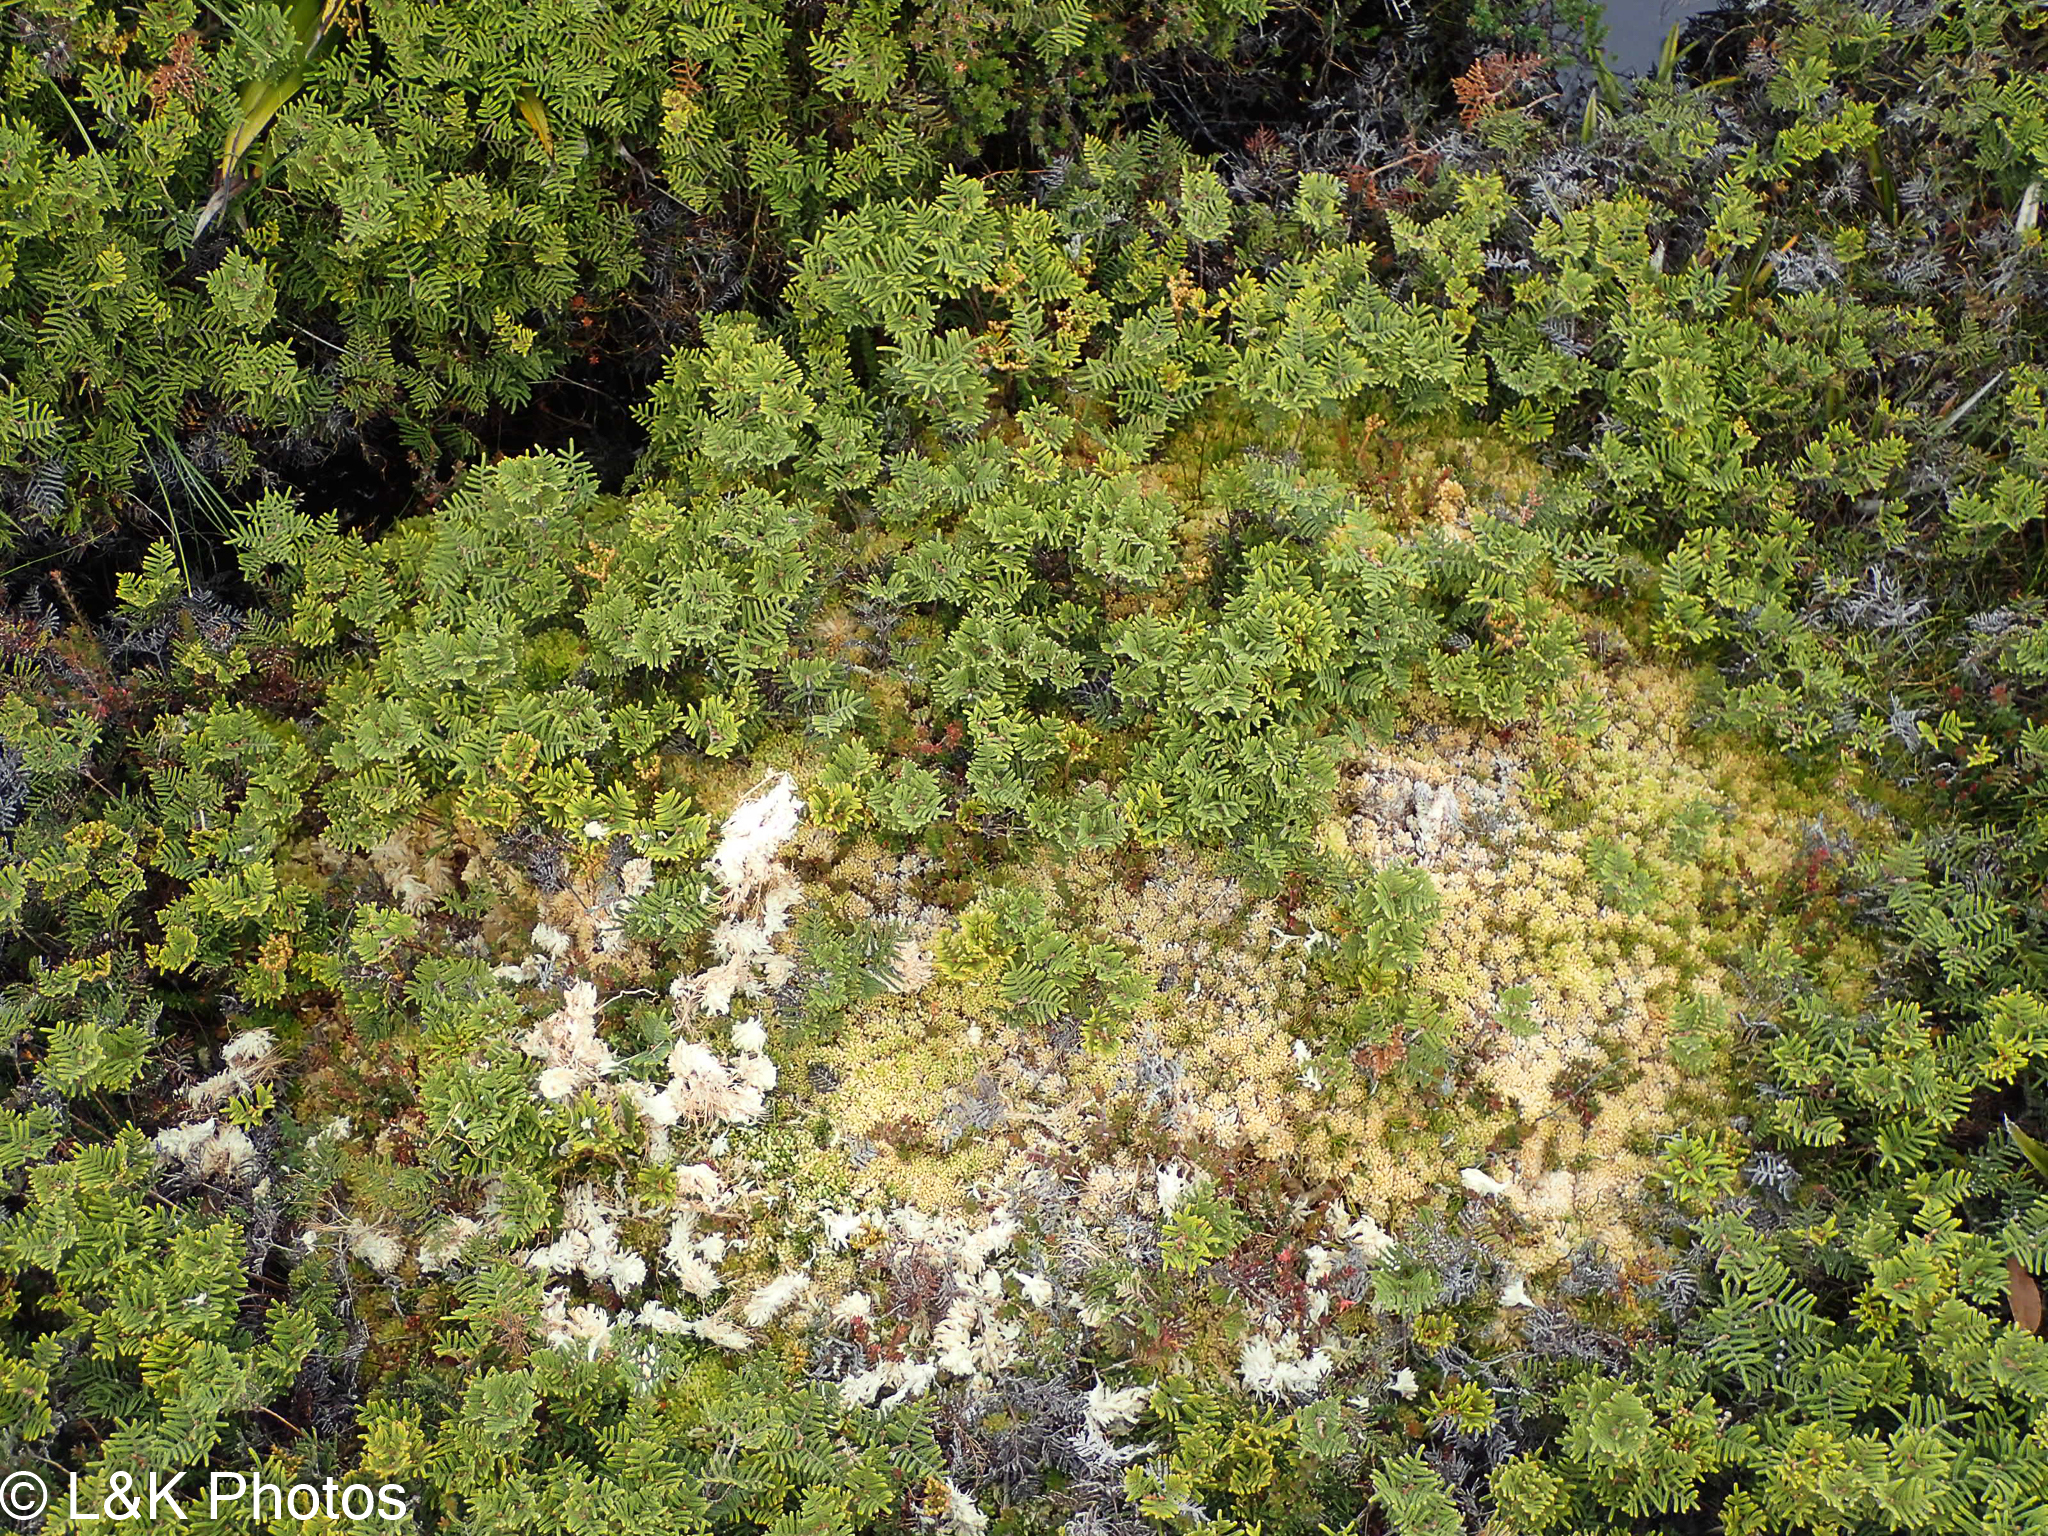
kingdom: Plantae
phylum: Tracheophyta
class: Polypodiopsida
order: Gleicheniales
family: Gleicheniaceae
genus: Gleichenia
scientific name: Gleichenia alpina
